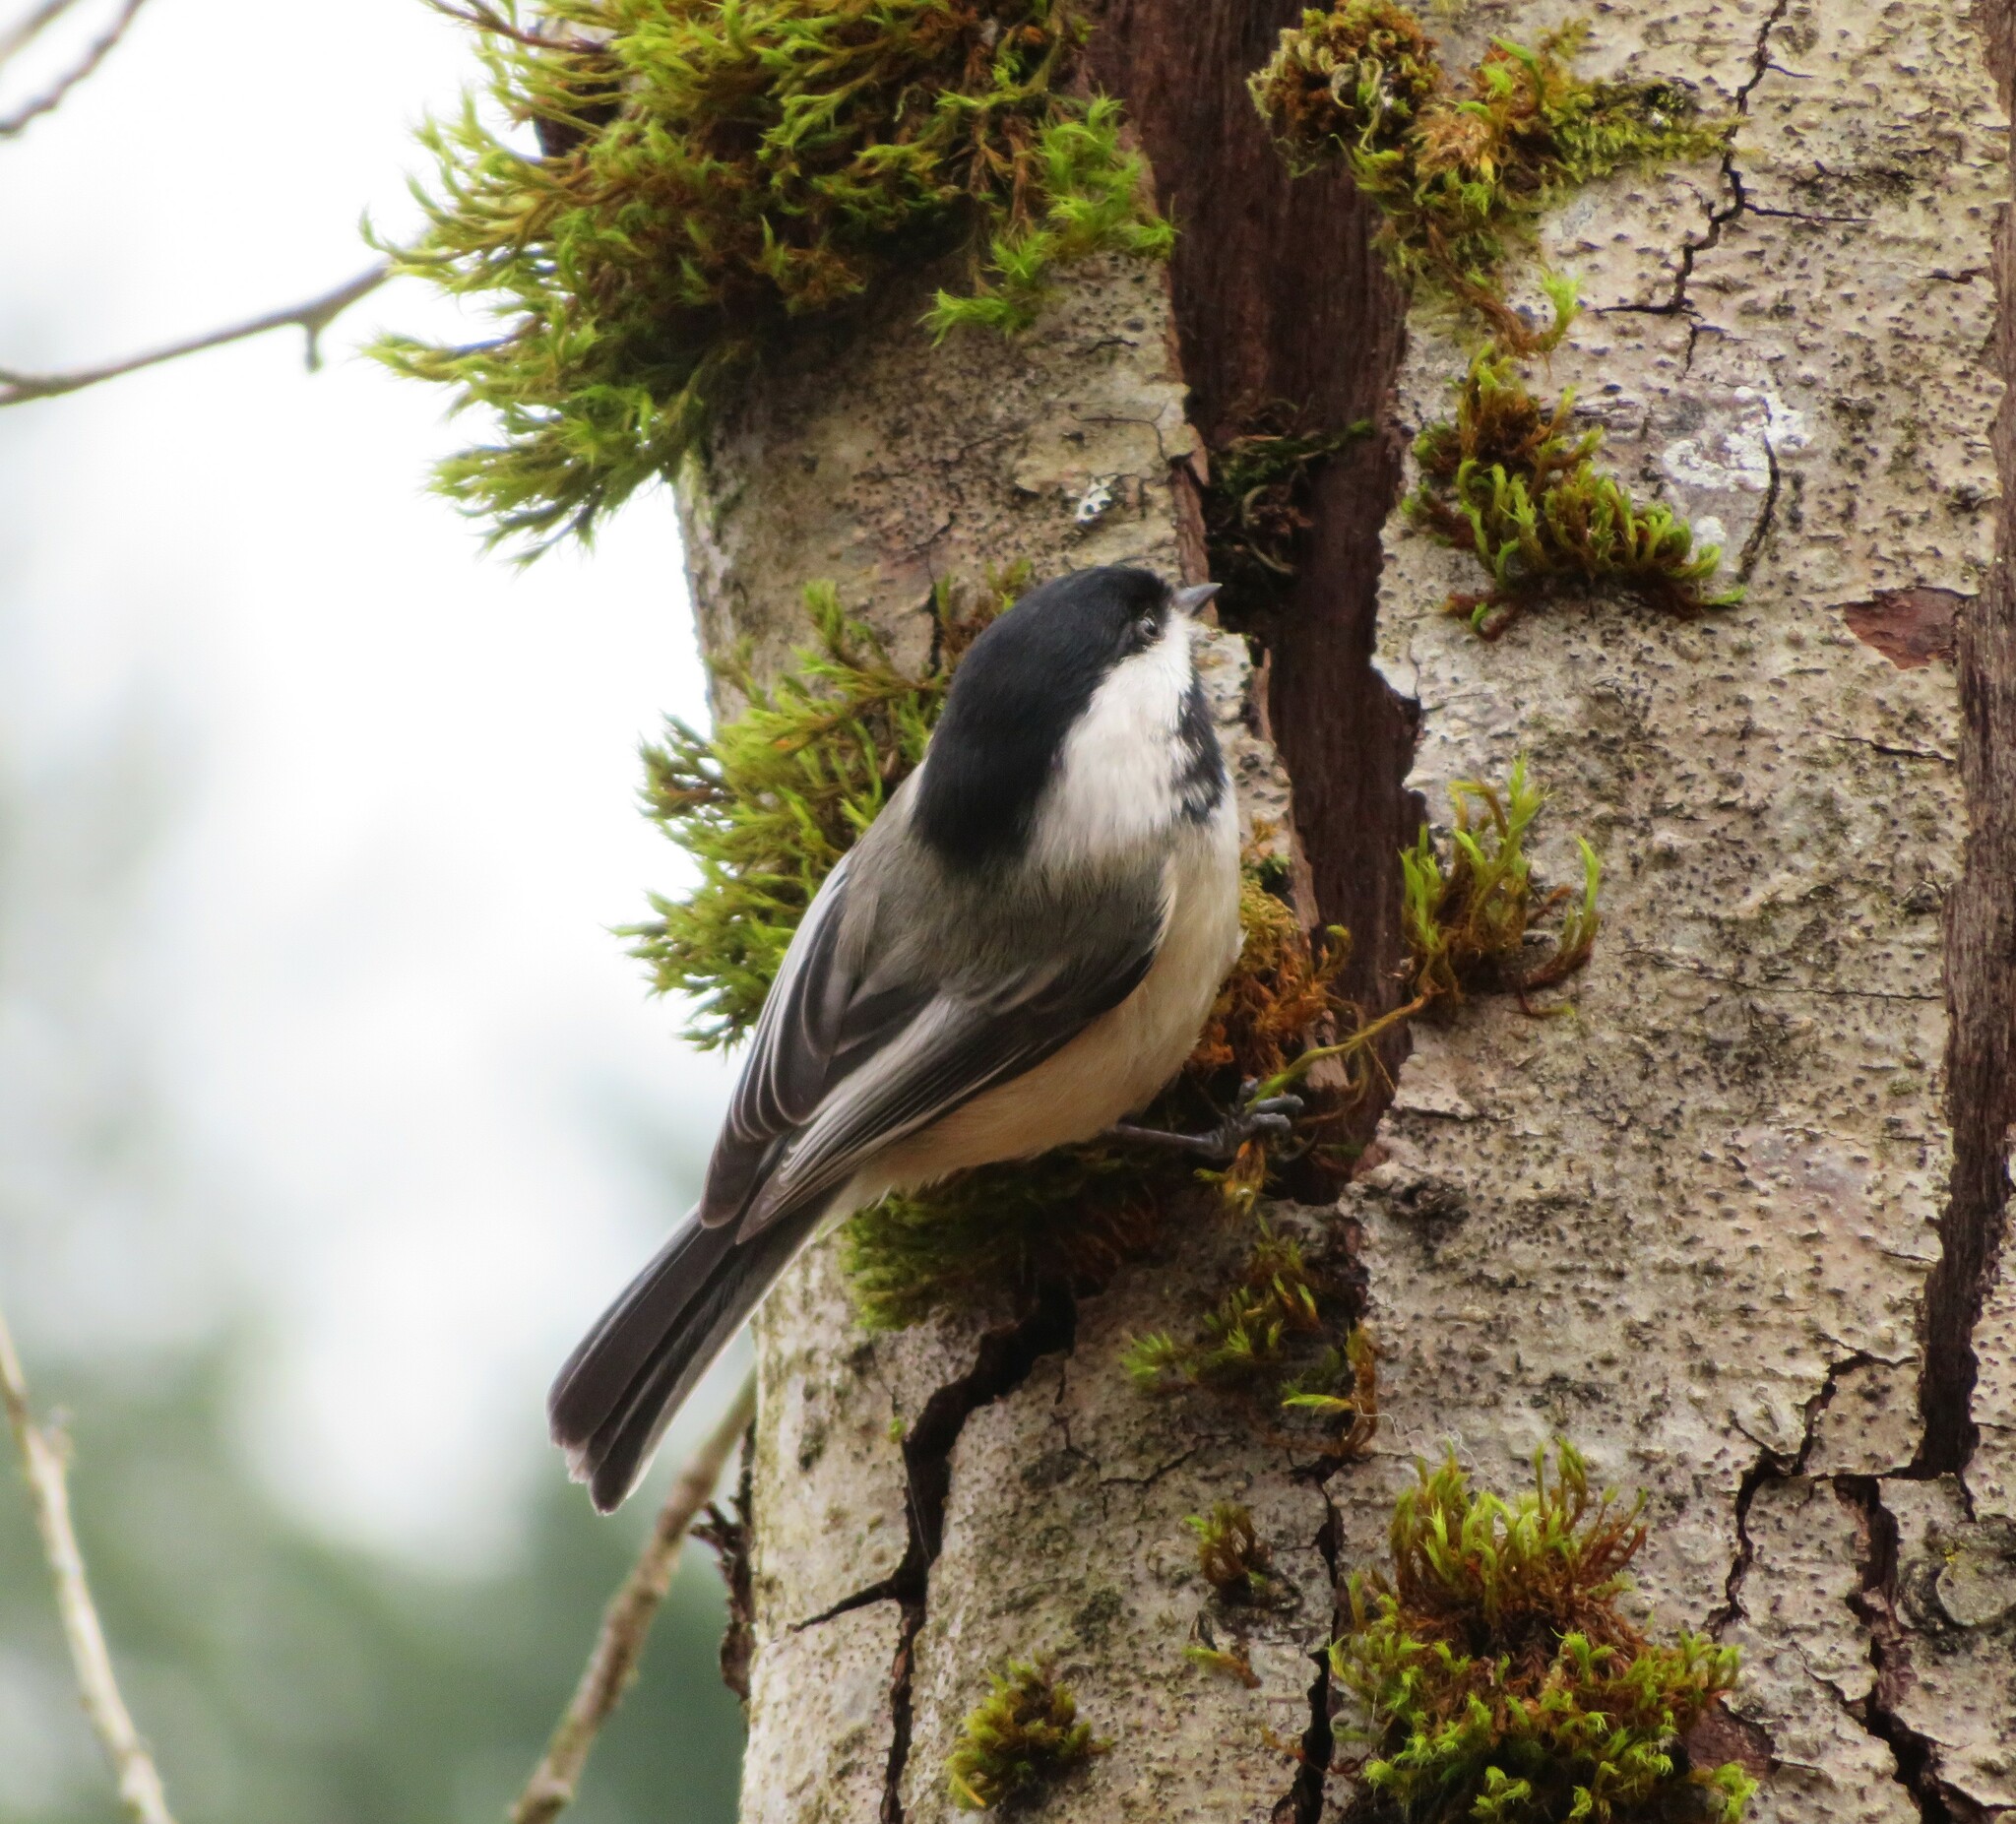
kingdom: Animalia
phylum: Chordata
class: Aves
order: Passeriformes
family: Paridae
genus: Poecile
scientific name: Poecile atricapillus
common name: Black-capped chickadee
